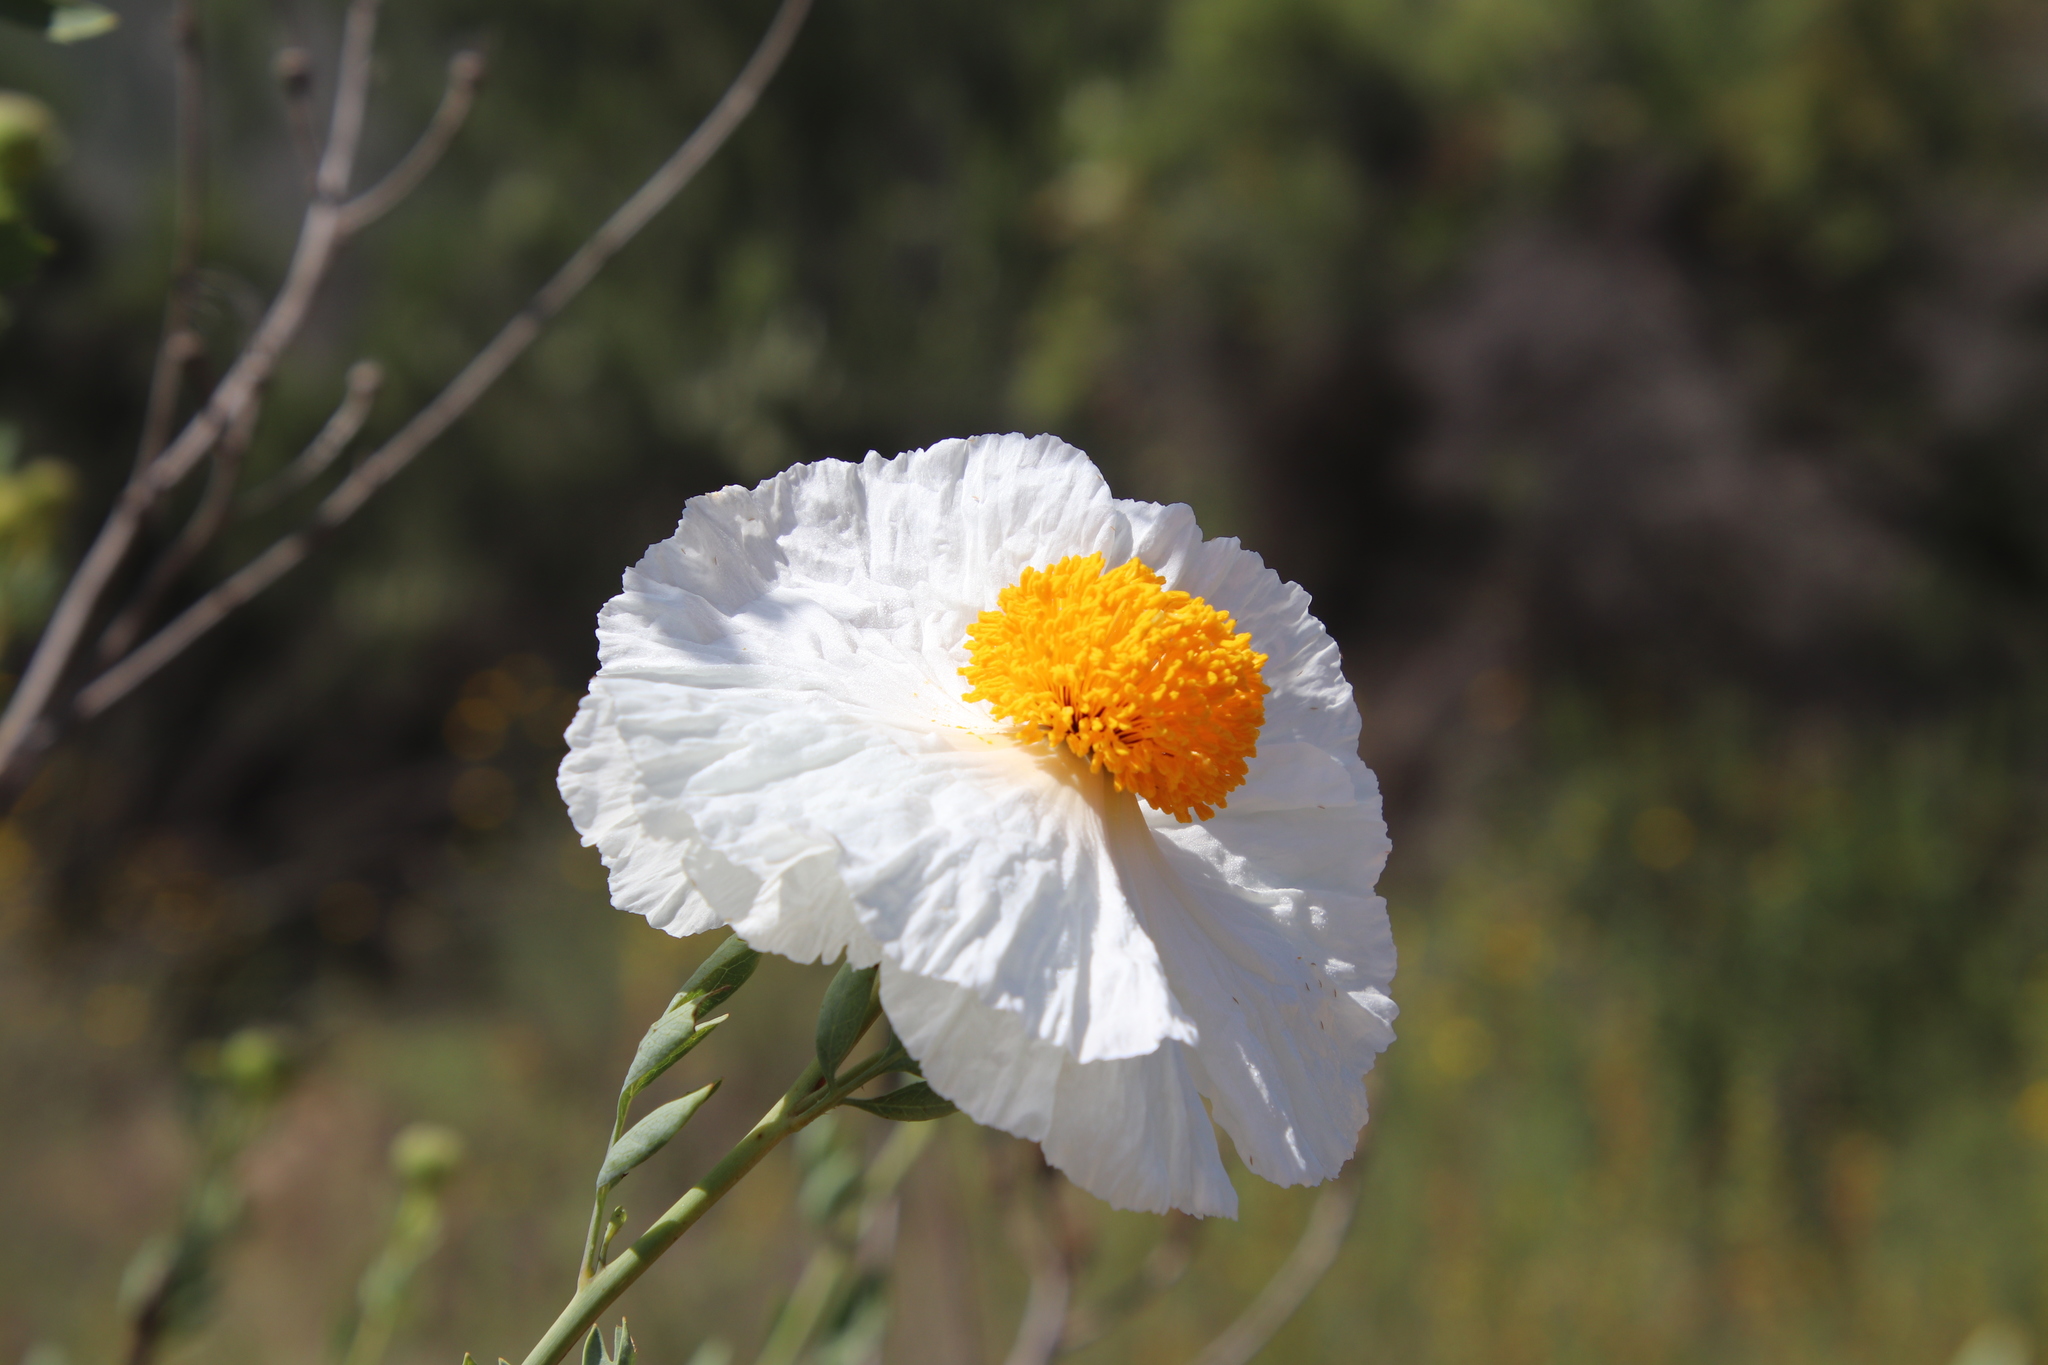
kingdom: Plantae
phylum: Tracheophyta
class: Magnoliopsida
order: Ranunculales
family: Papaveraceae
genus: Romneya
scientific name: Romneya trichocalyx
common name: Hairy matilija-poppy
